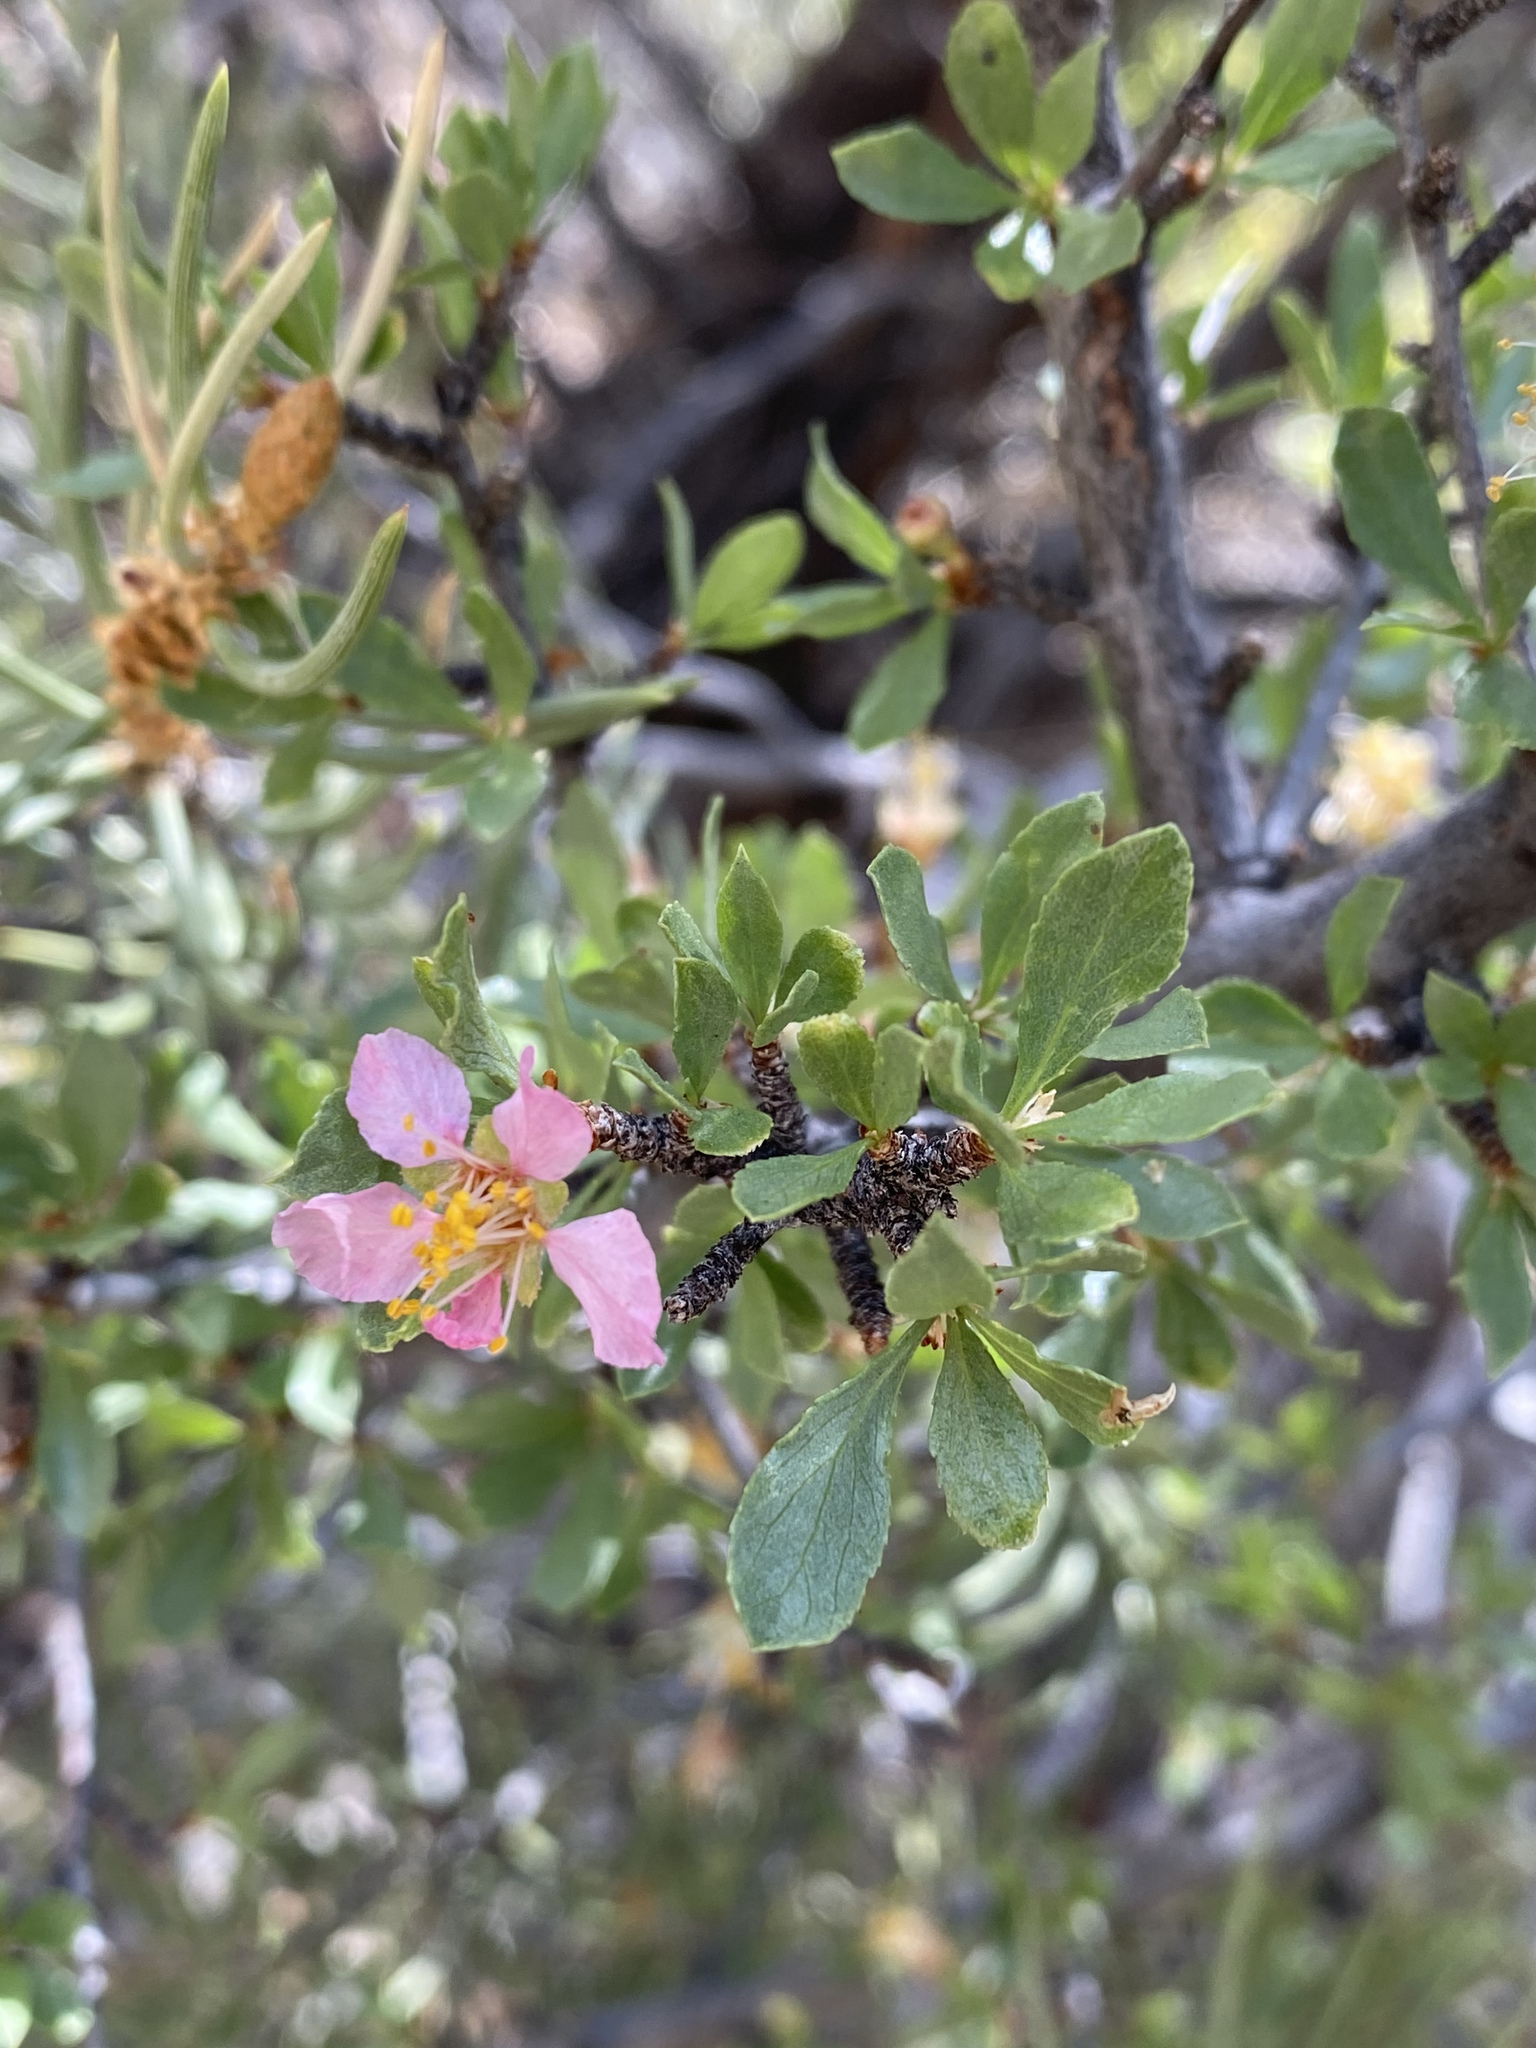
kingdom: Plantae
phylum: Tracheophyta
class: Magnoliopsida
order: Rosales
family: Rosaceae
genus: Prunus
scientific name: Prunus andersonii
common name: Desert peach
